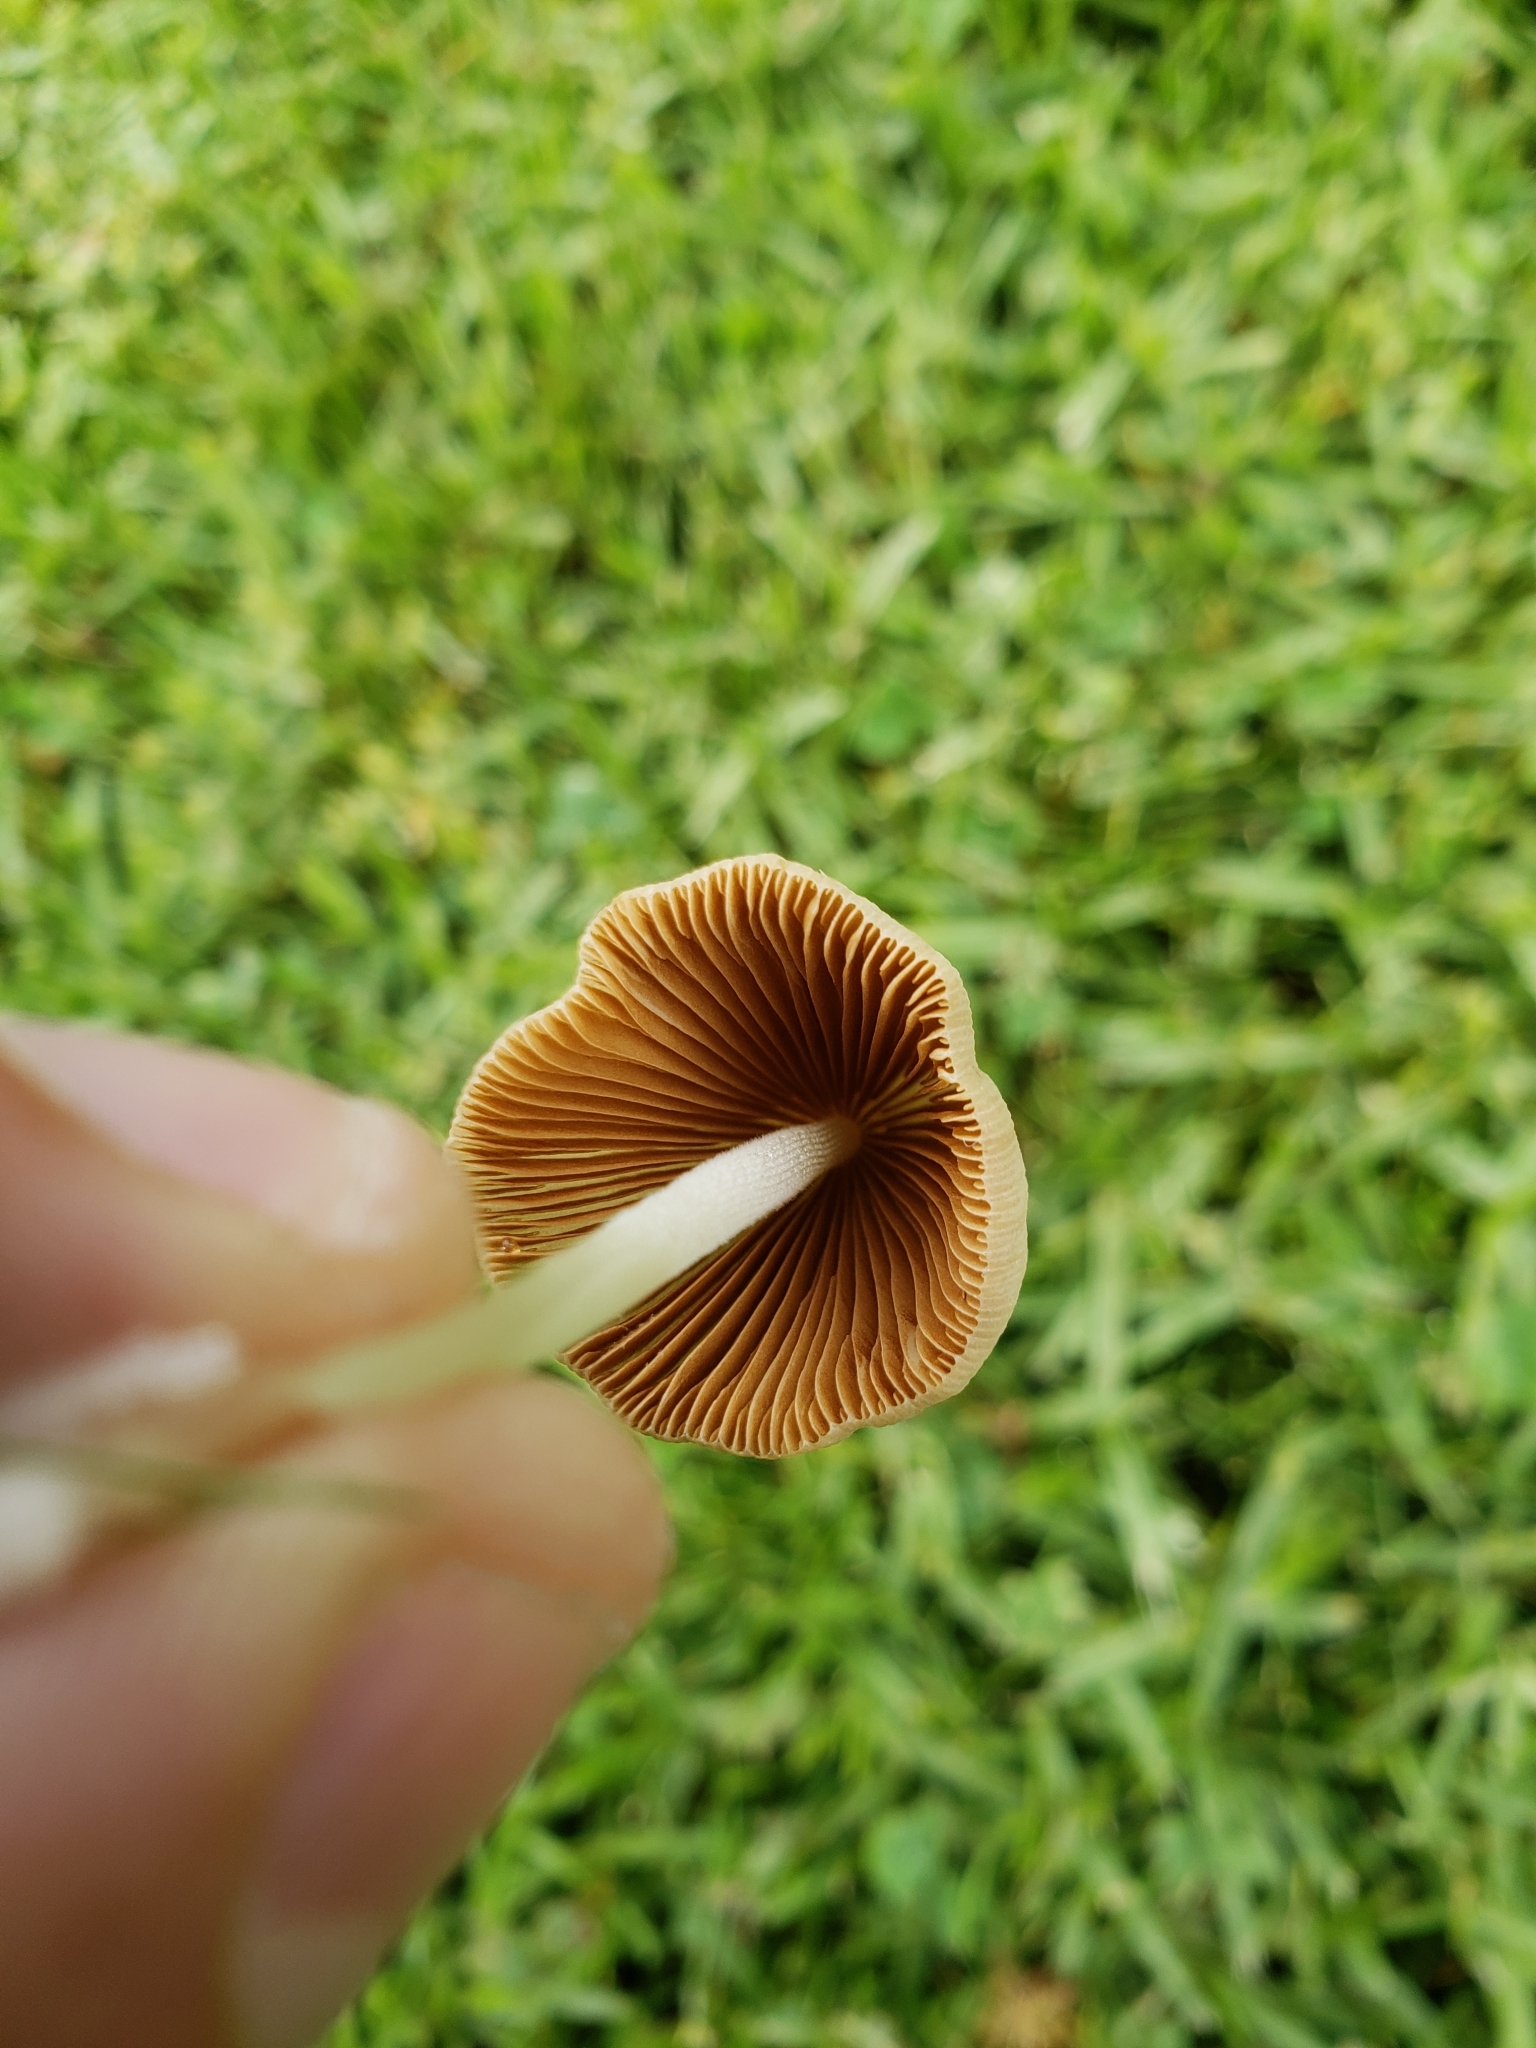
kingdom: Fungi
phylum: Basidiomycota
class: Agaricomycetes
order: Agaricales
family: Bolbitiaceae
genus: Conocybe
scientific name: Conocybe apala
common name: Milky conecap
